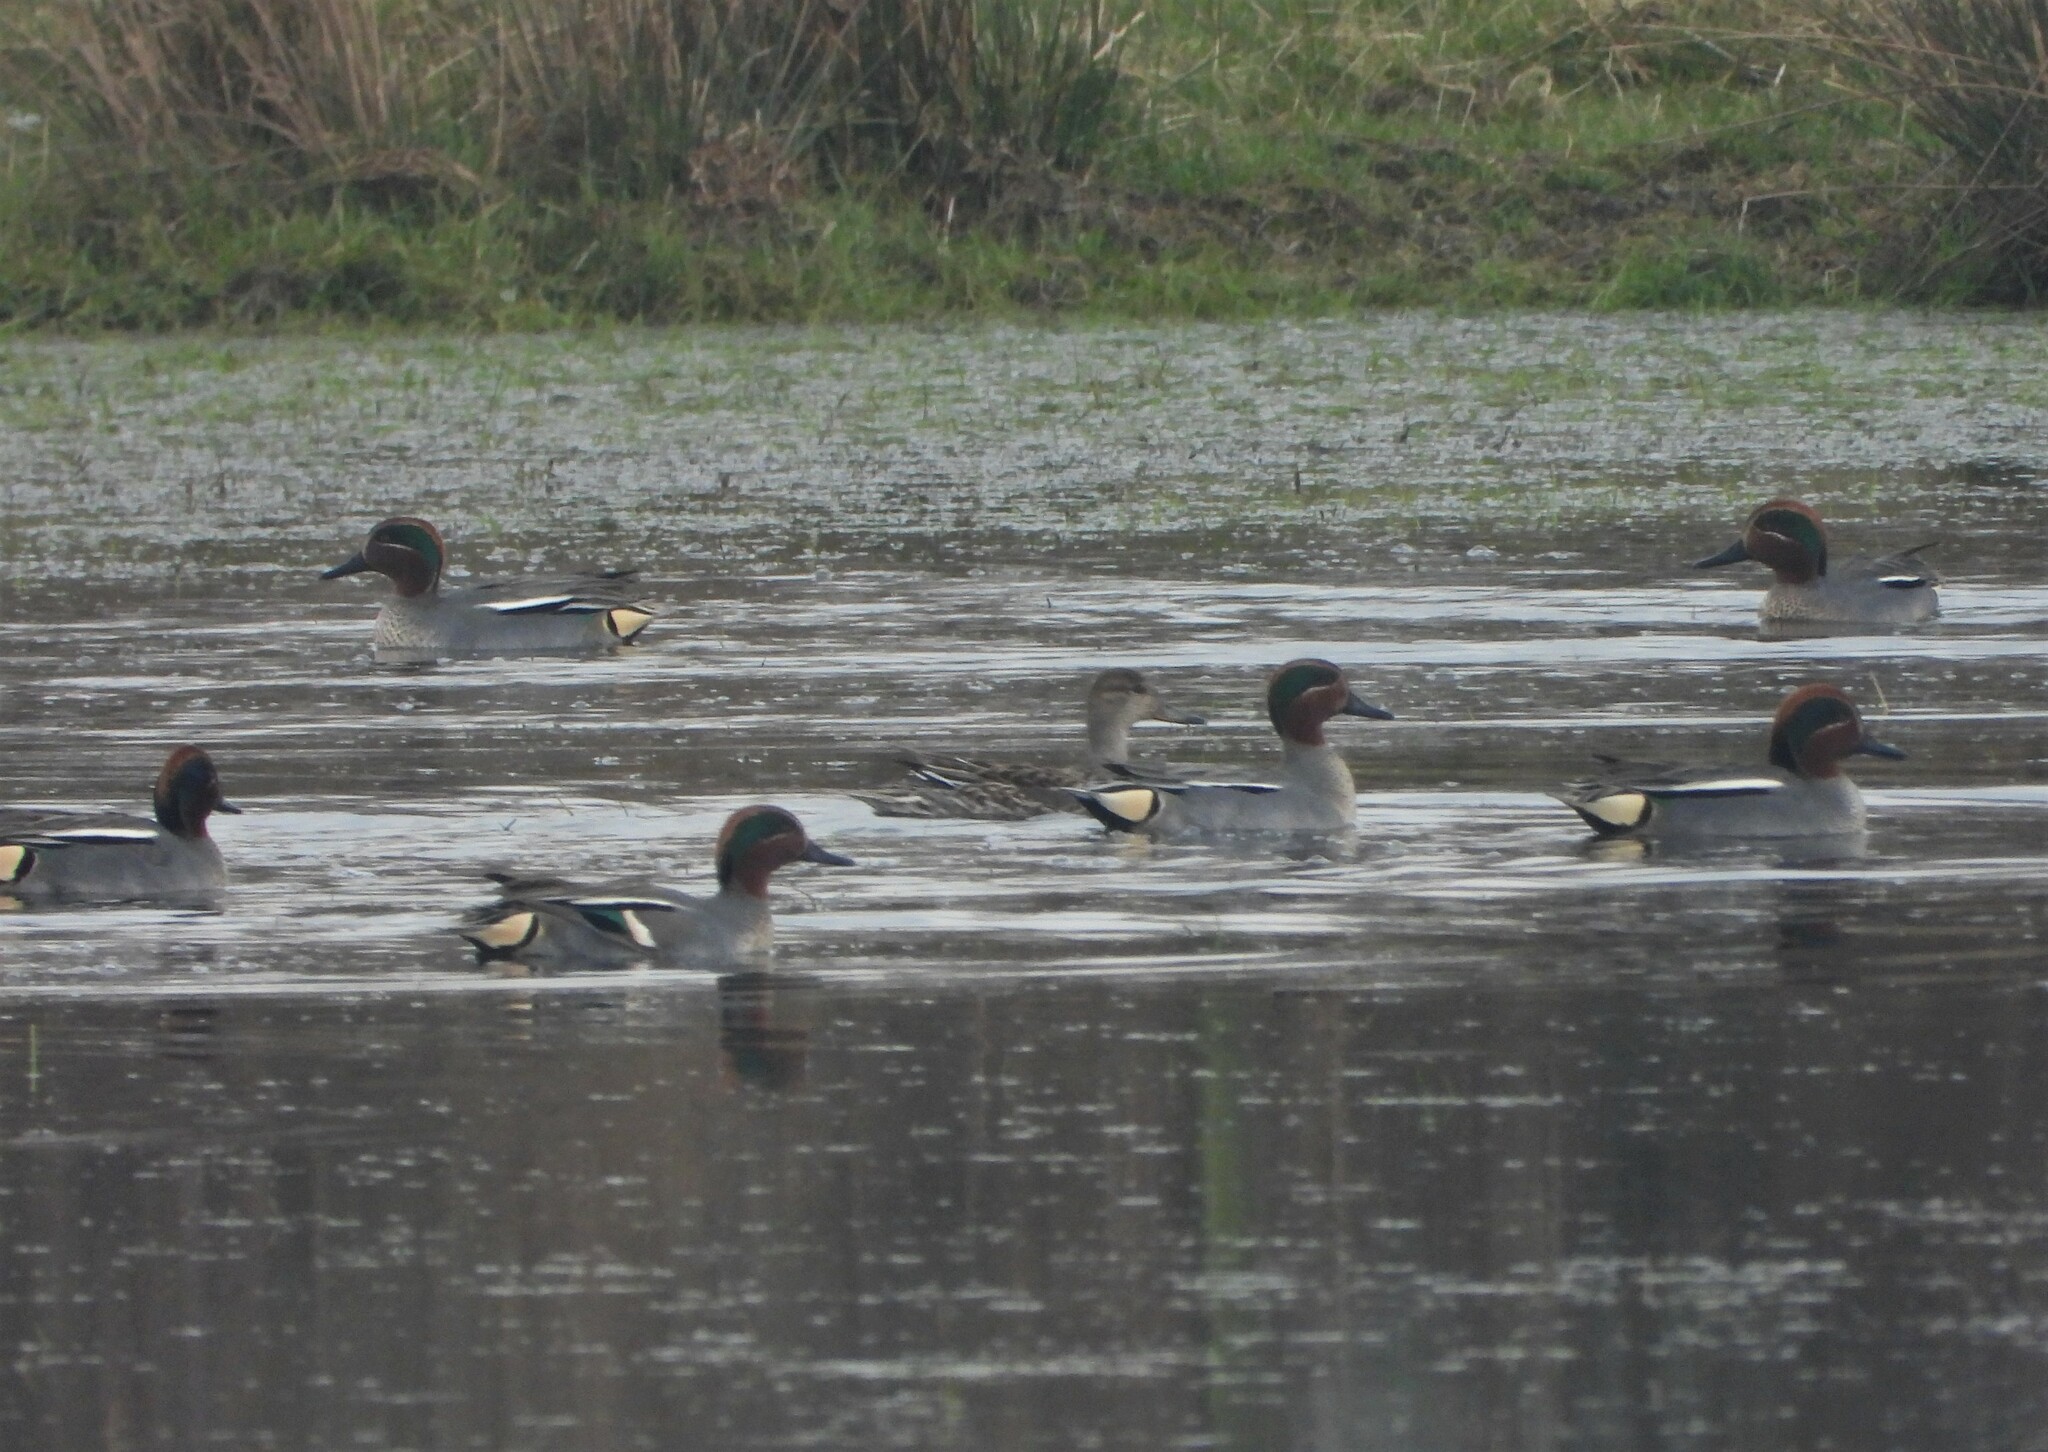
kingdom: Animalia
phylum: Chordata
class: Aves
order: Anseriformes
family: Anatidae
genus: Anas
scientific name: Anas crecca
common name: Eurasian teal
